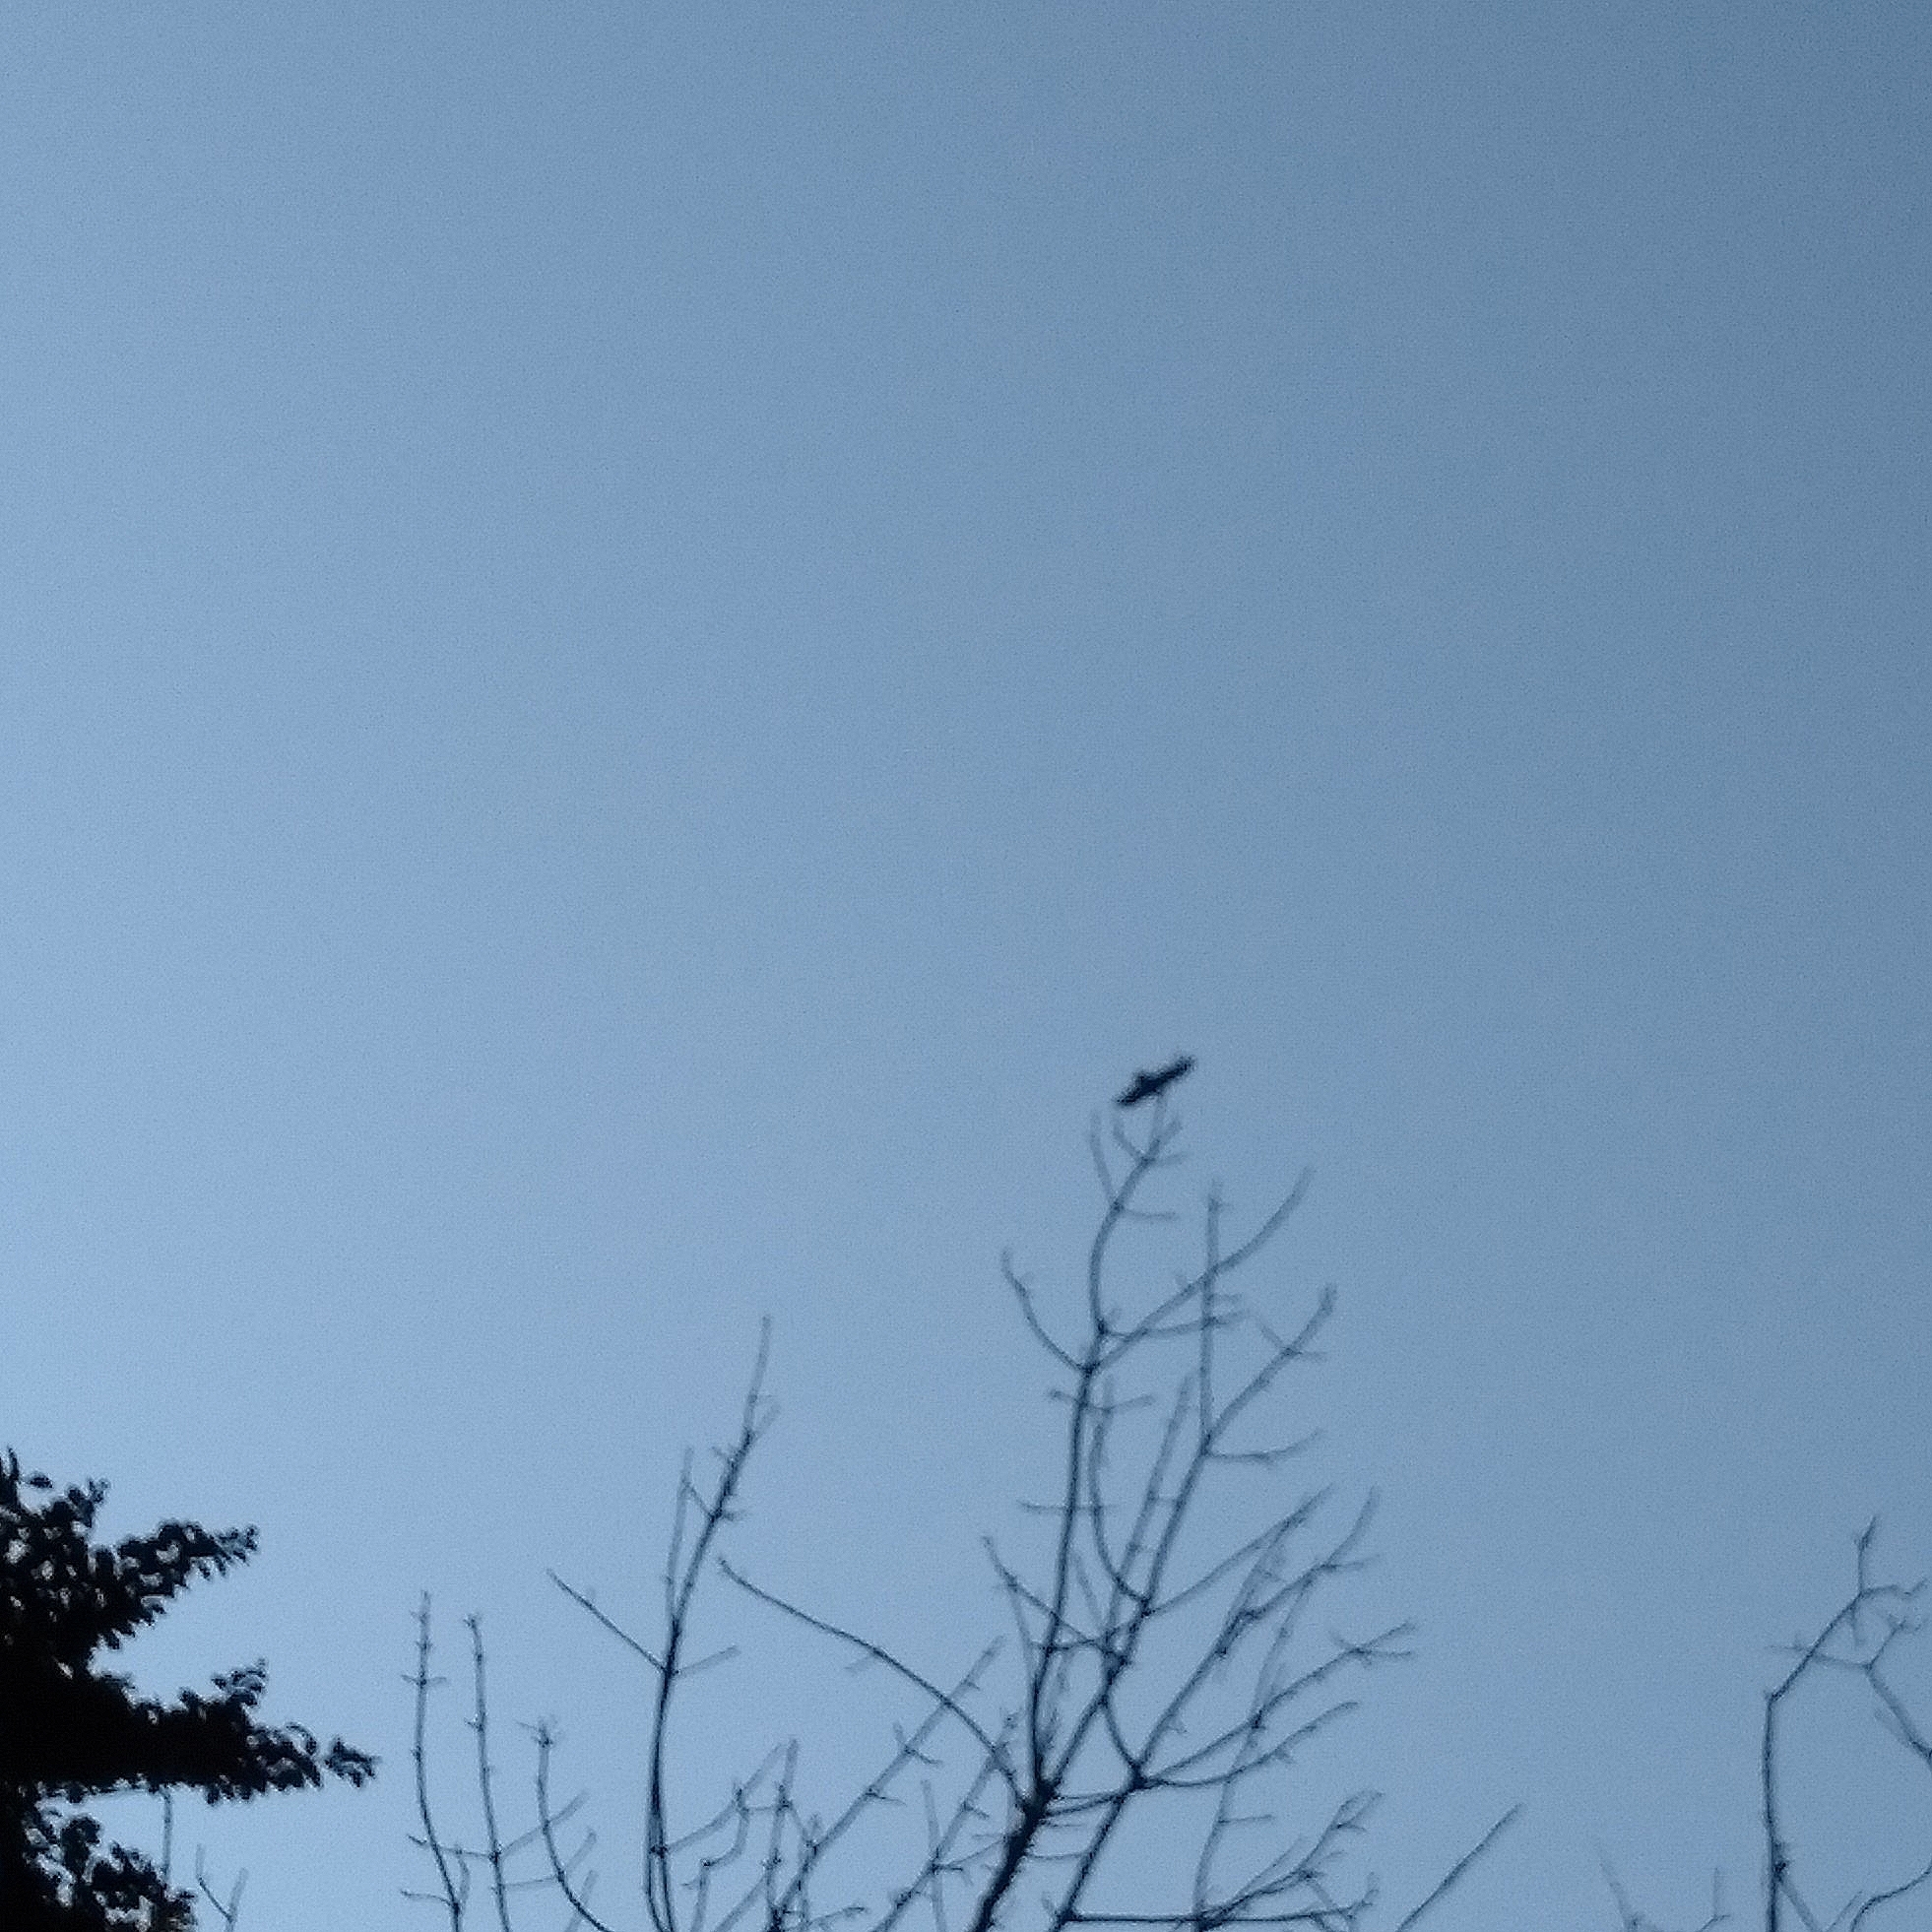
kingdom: Animalia
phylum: Chordata
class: Aves
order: Accipitriformes
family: Accipitridae
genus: Buteo
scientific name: Buteo platypterus
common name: Broad-winged hawk
